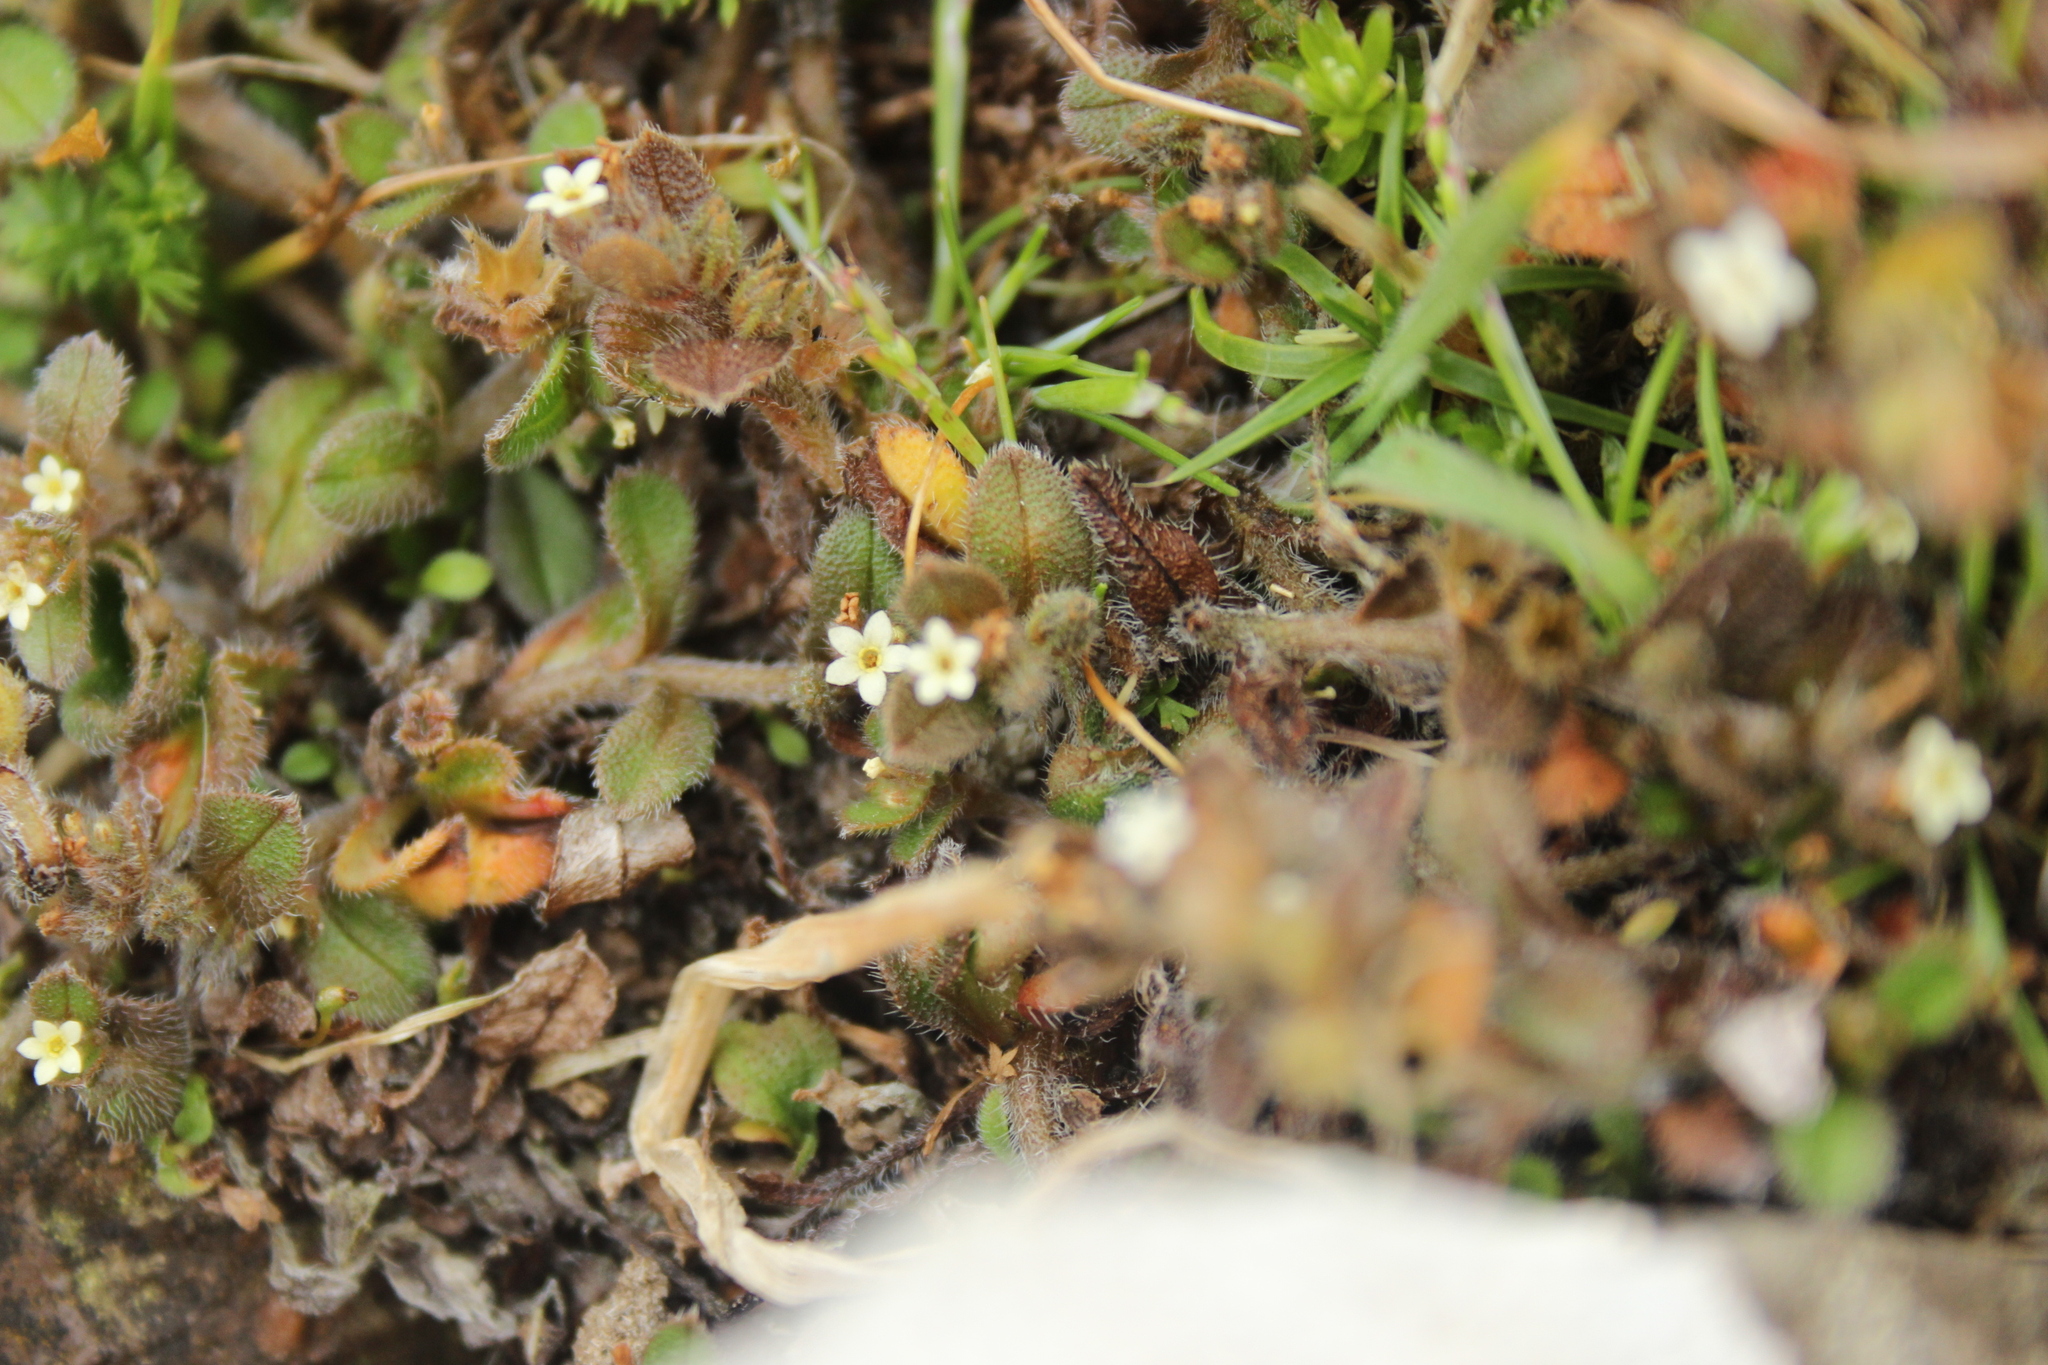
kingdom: Plantae
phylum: Tracheophyta
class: Magnoliopsida
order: Boraginales
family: Boraginaceae
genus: Myosotis
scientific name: Myosotis antarctica
